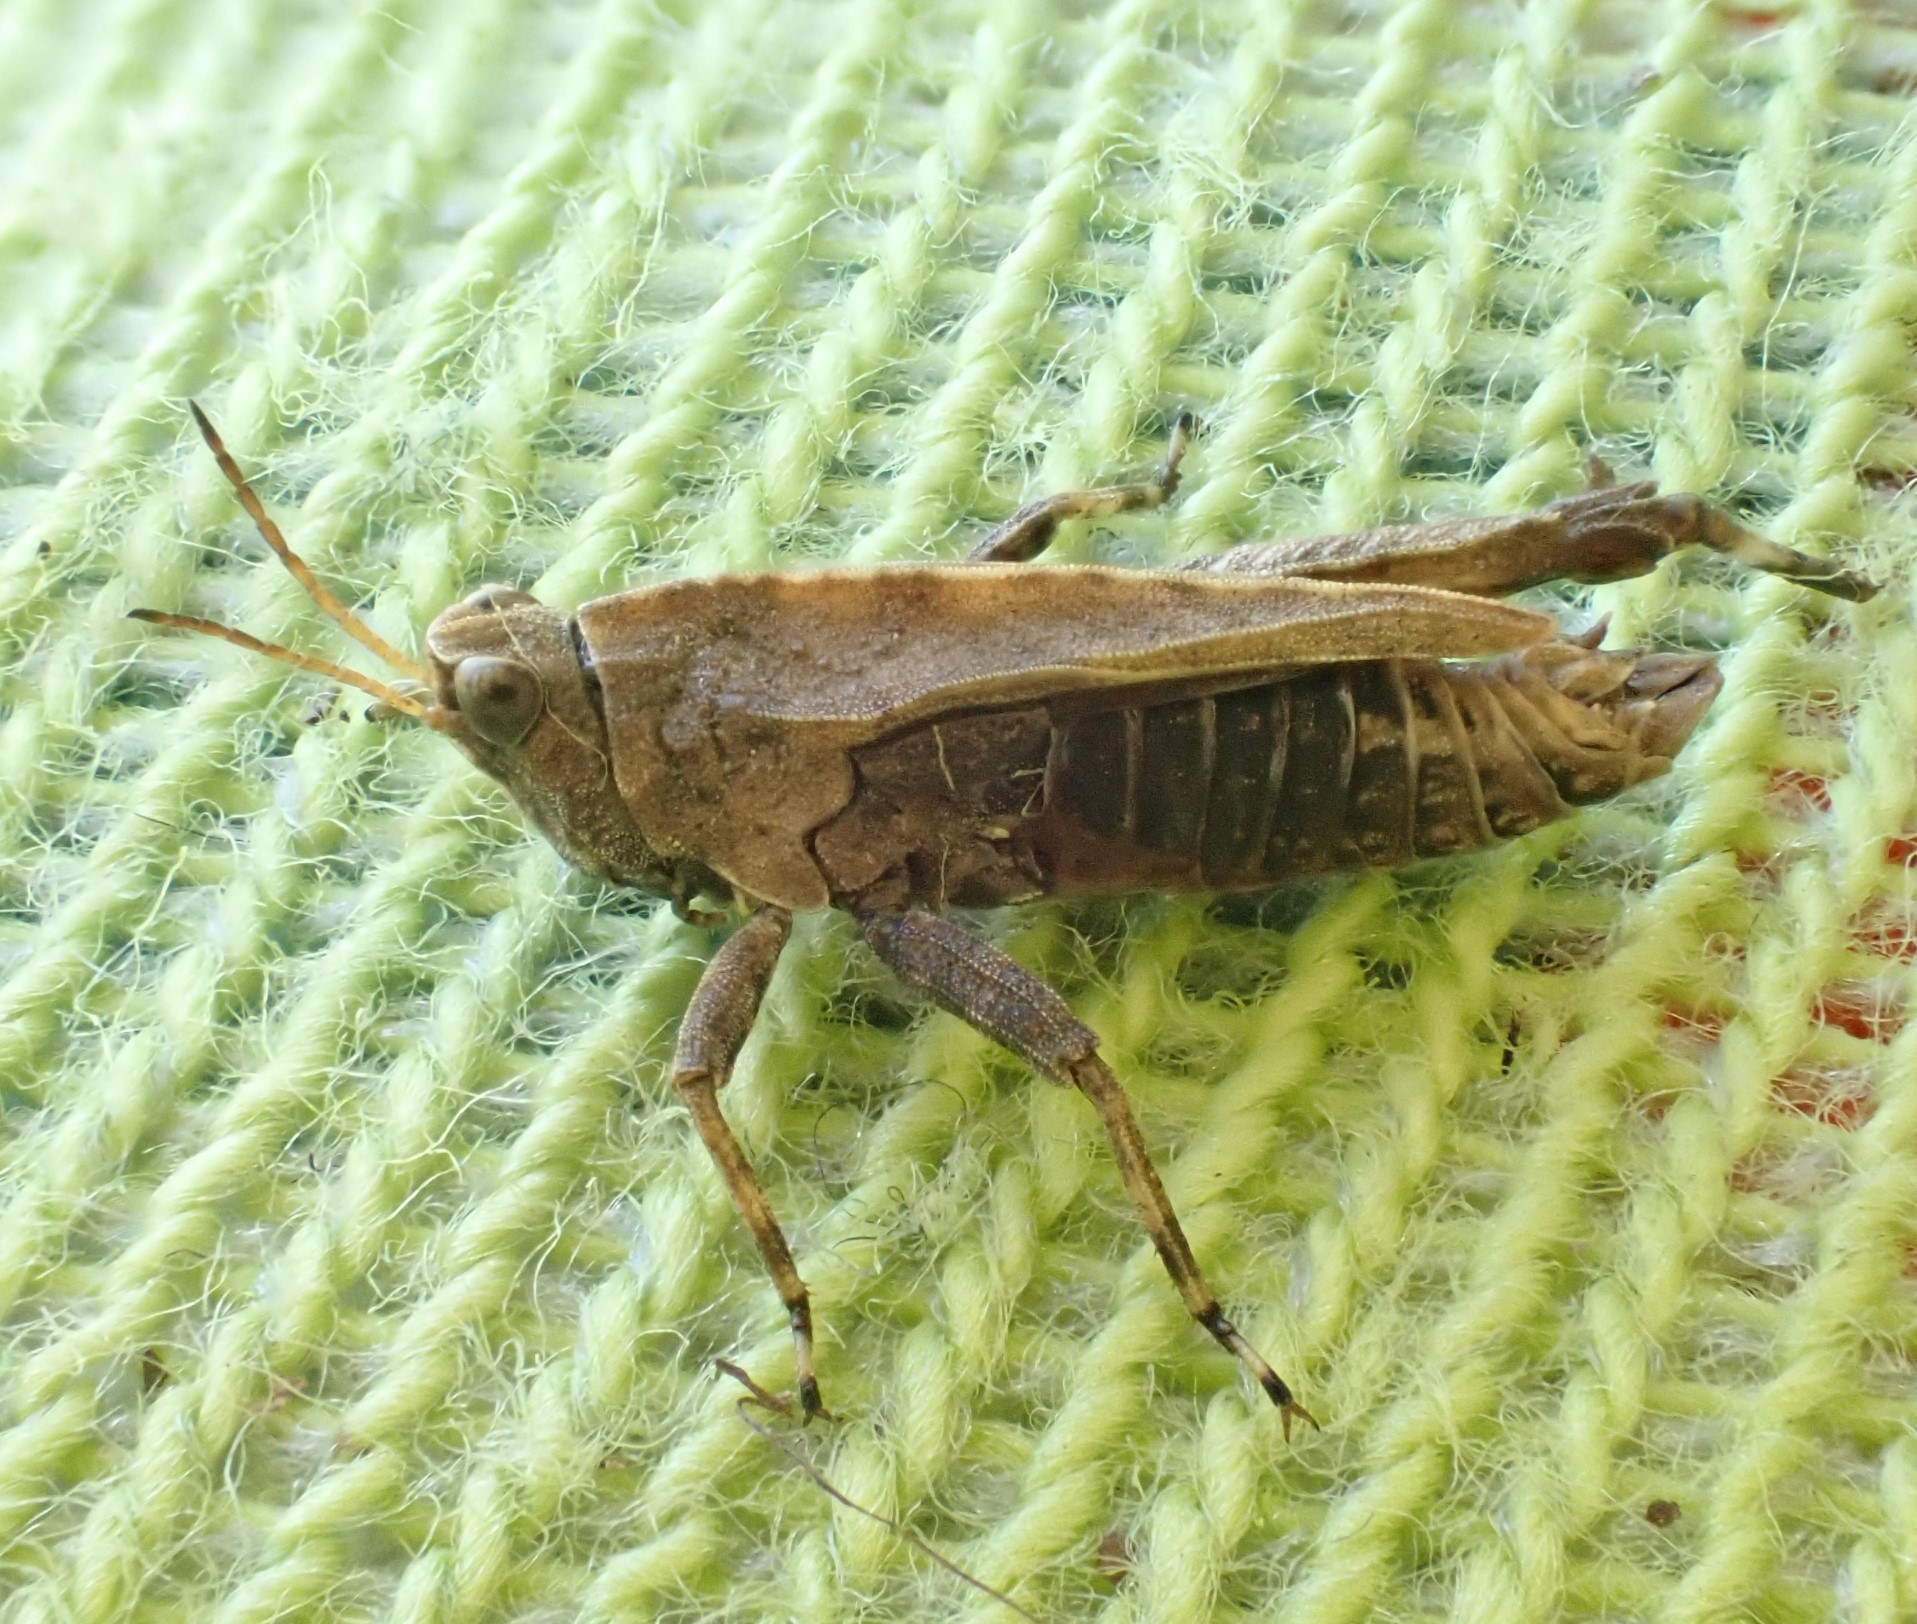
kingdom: Animalia
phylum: Arthropoda
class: Insecta
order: Orthoptera
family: Tetrigidae
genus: Tetrix
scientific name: Tetrix undulata
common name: Common groundhopper
